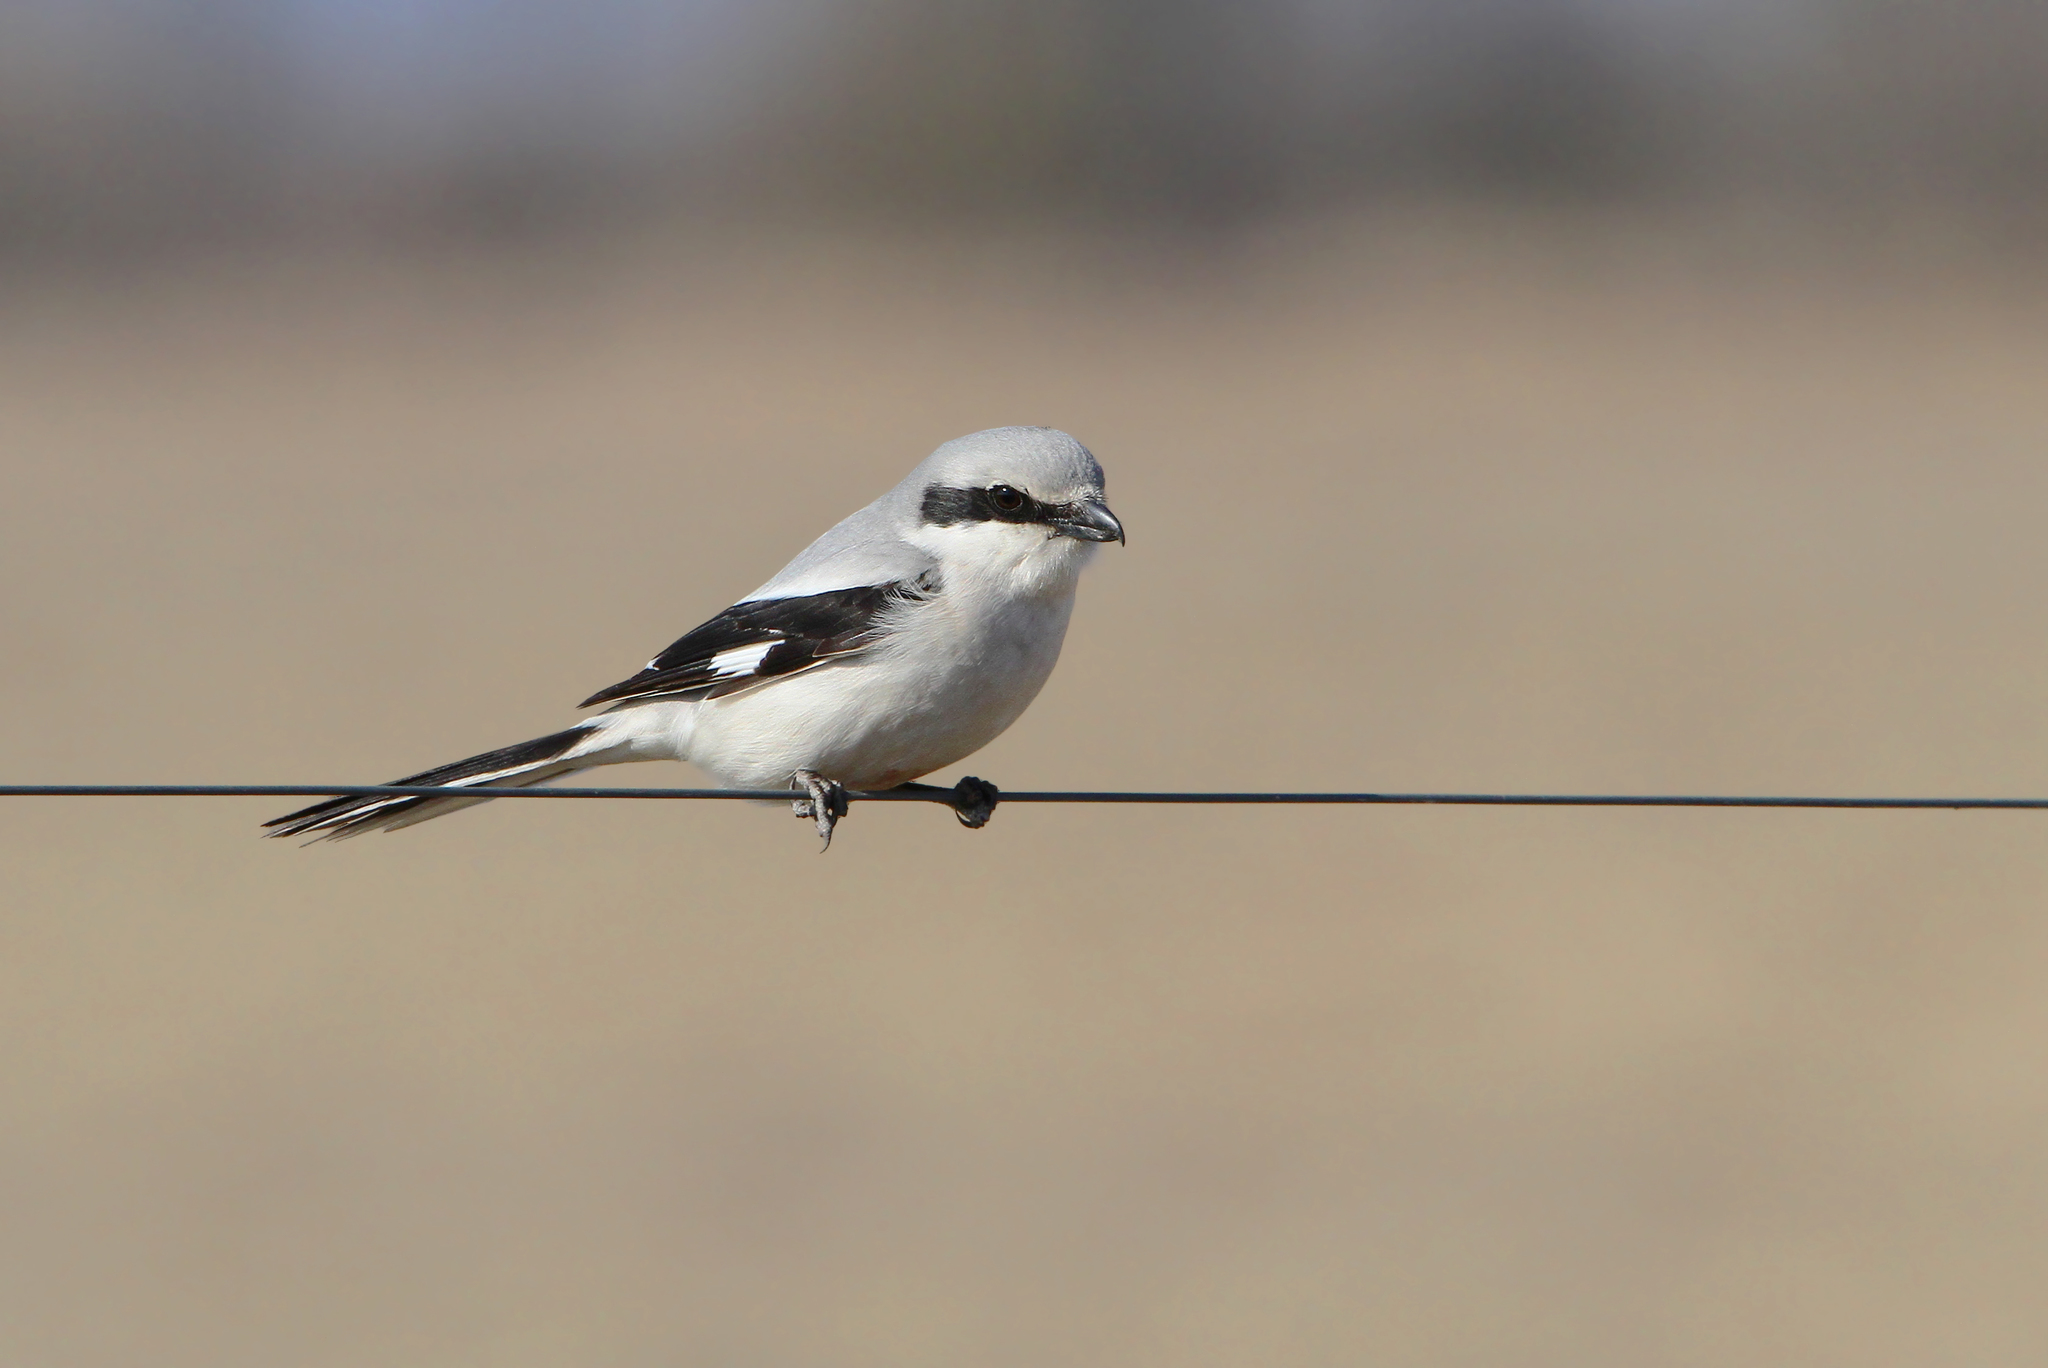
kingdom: Animalia
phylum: Chordata
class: Aves
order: Passeriformes
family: Laniidae
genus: Lanius
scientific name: Lanius excubitor
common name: Great grey shrike
